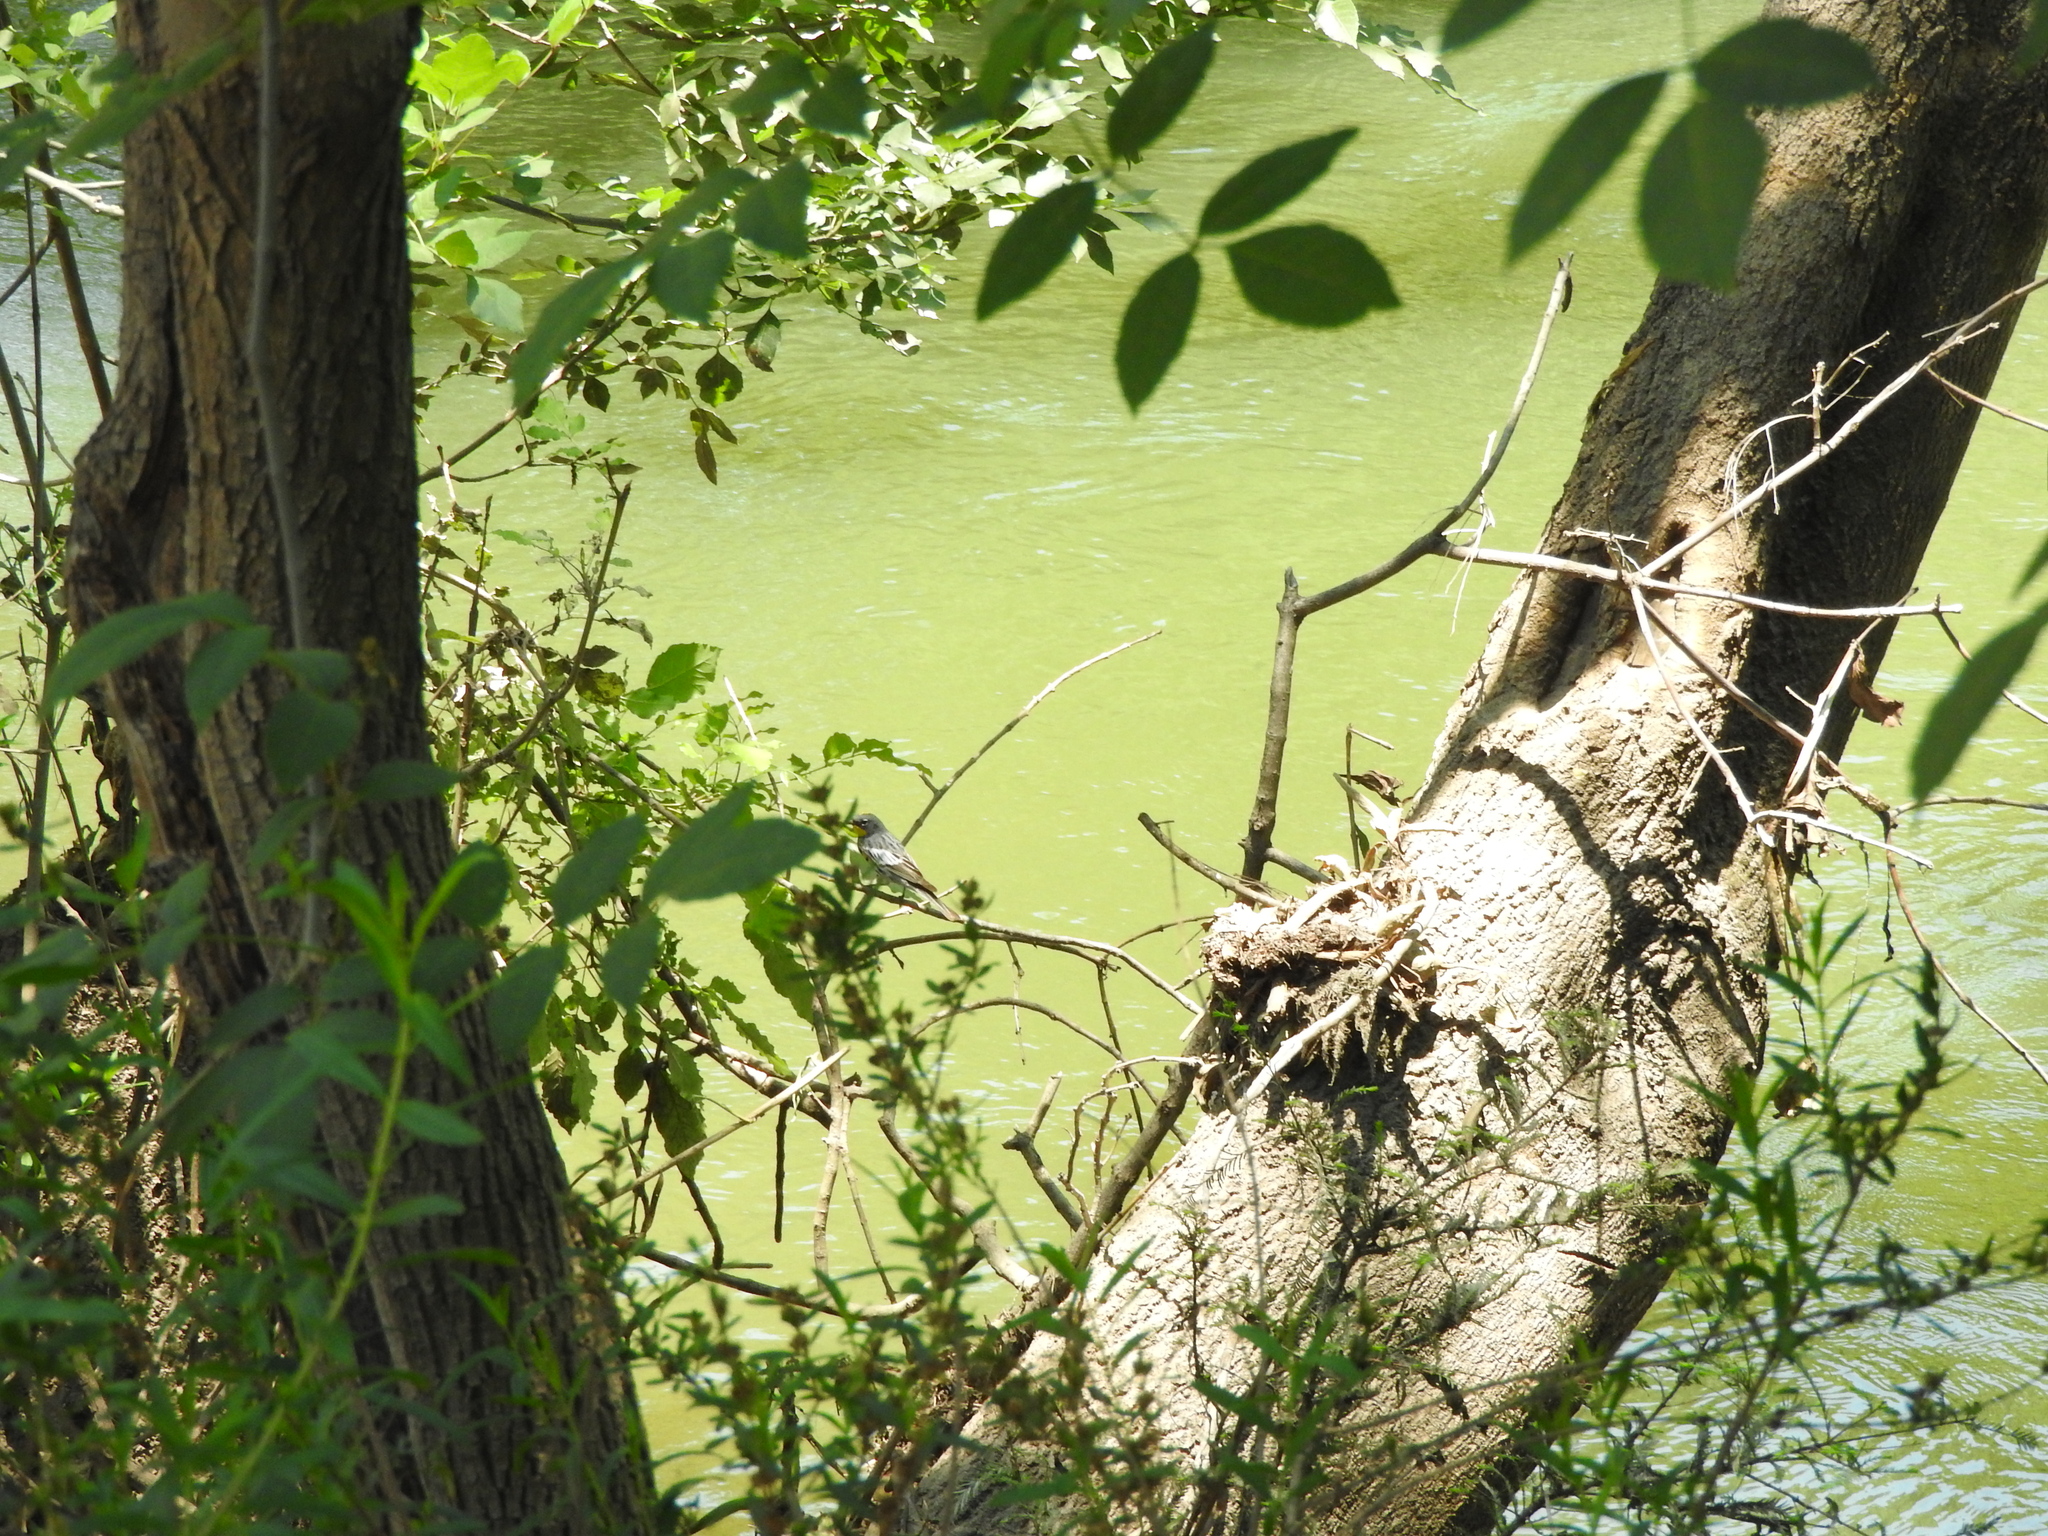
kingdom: Animalia
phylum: Chordata
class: Aves
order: Passeriformes
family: Parulidae
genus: Setophaga
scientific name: Setophaga coronata
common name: Myrtle warbler
